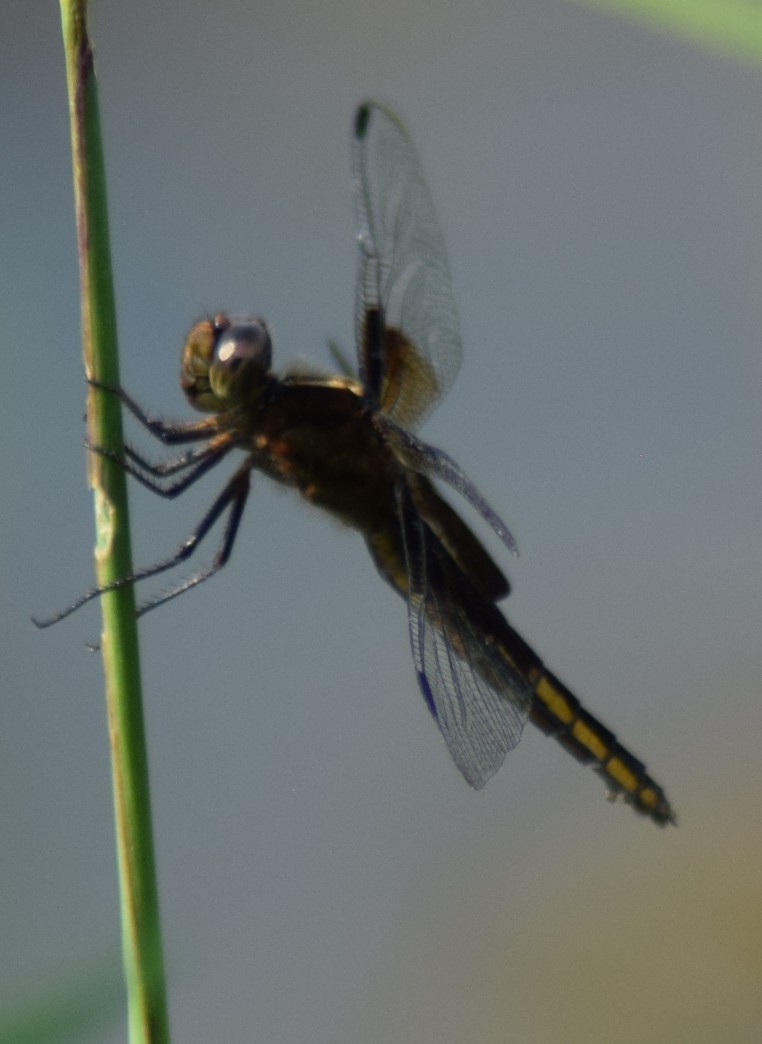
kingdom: Animalia
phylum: Arthropoda
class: Insecta
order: Odonata
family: Libellulidae
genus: Libellula
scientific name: Libellula luctuosa
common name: Widow skimmer
